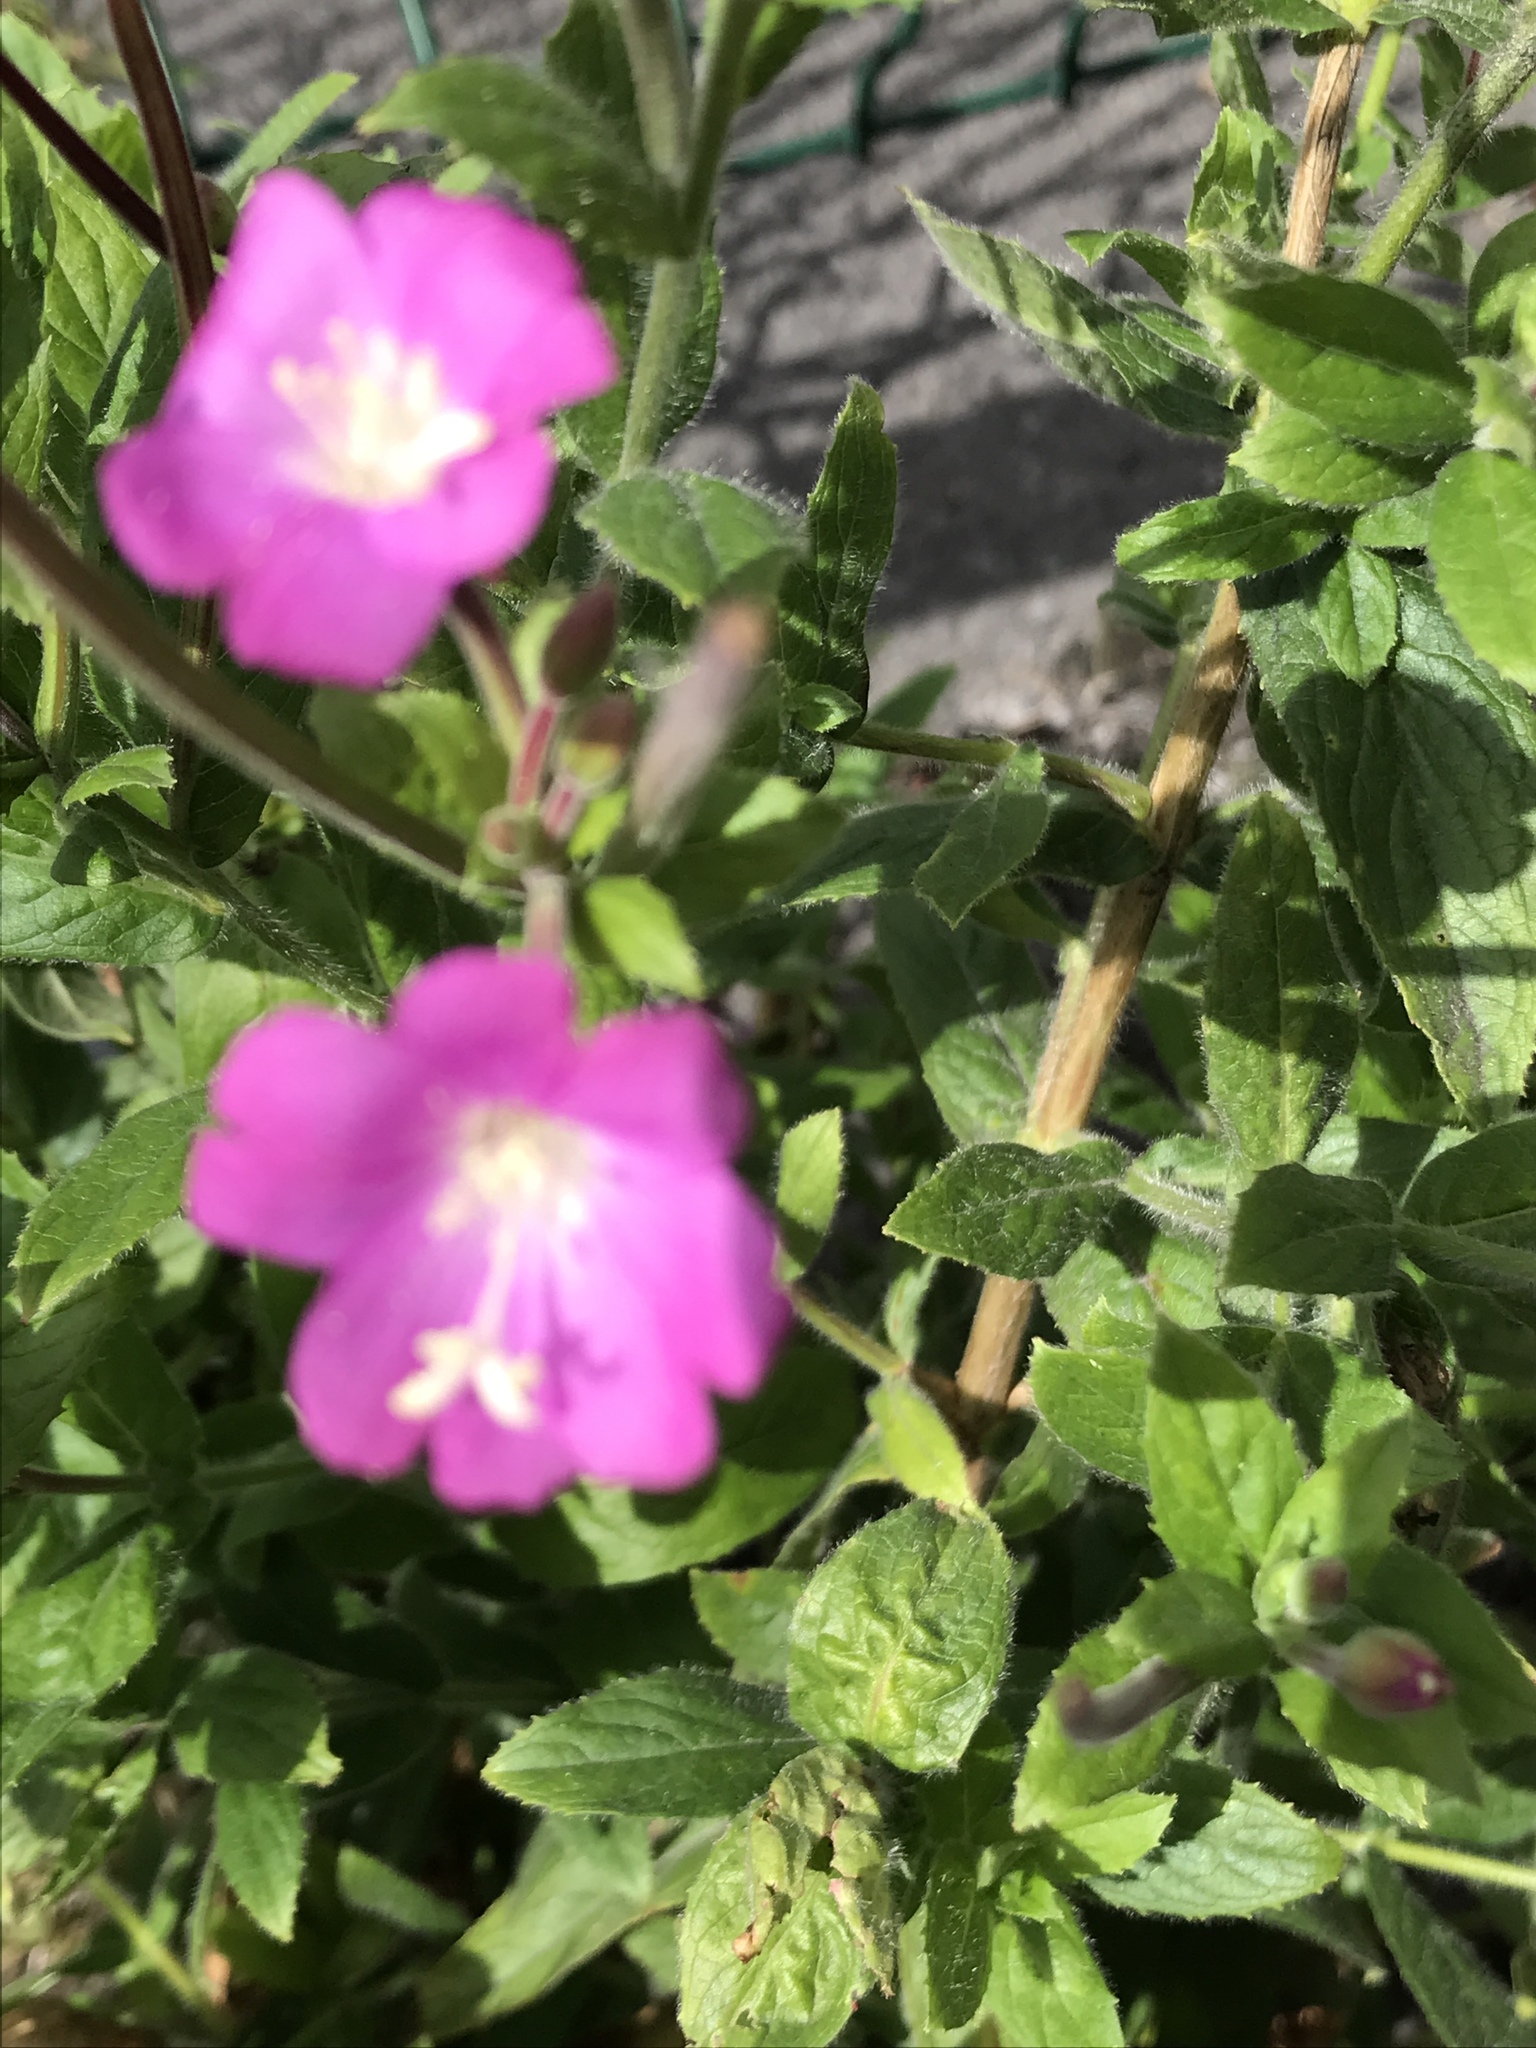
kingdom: Plantae
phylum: Tracheophyta
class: Magnoliopsida
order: Myrtales
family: Onagraceae
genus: Epilobium
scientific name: Epilobium hirsutum
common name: Great willowherb
